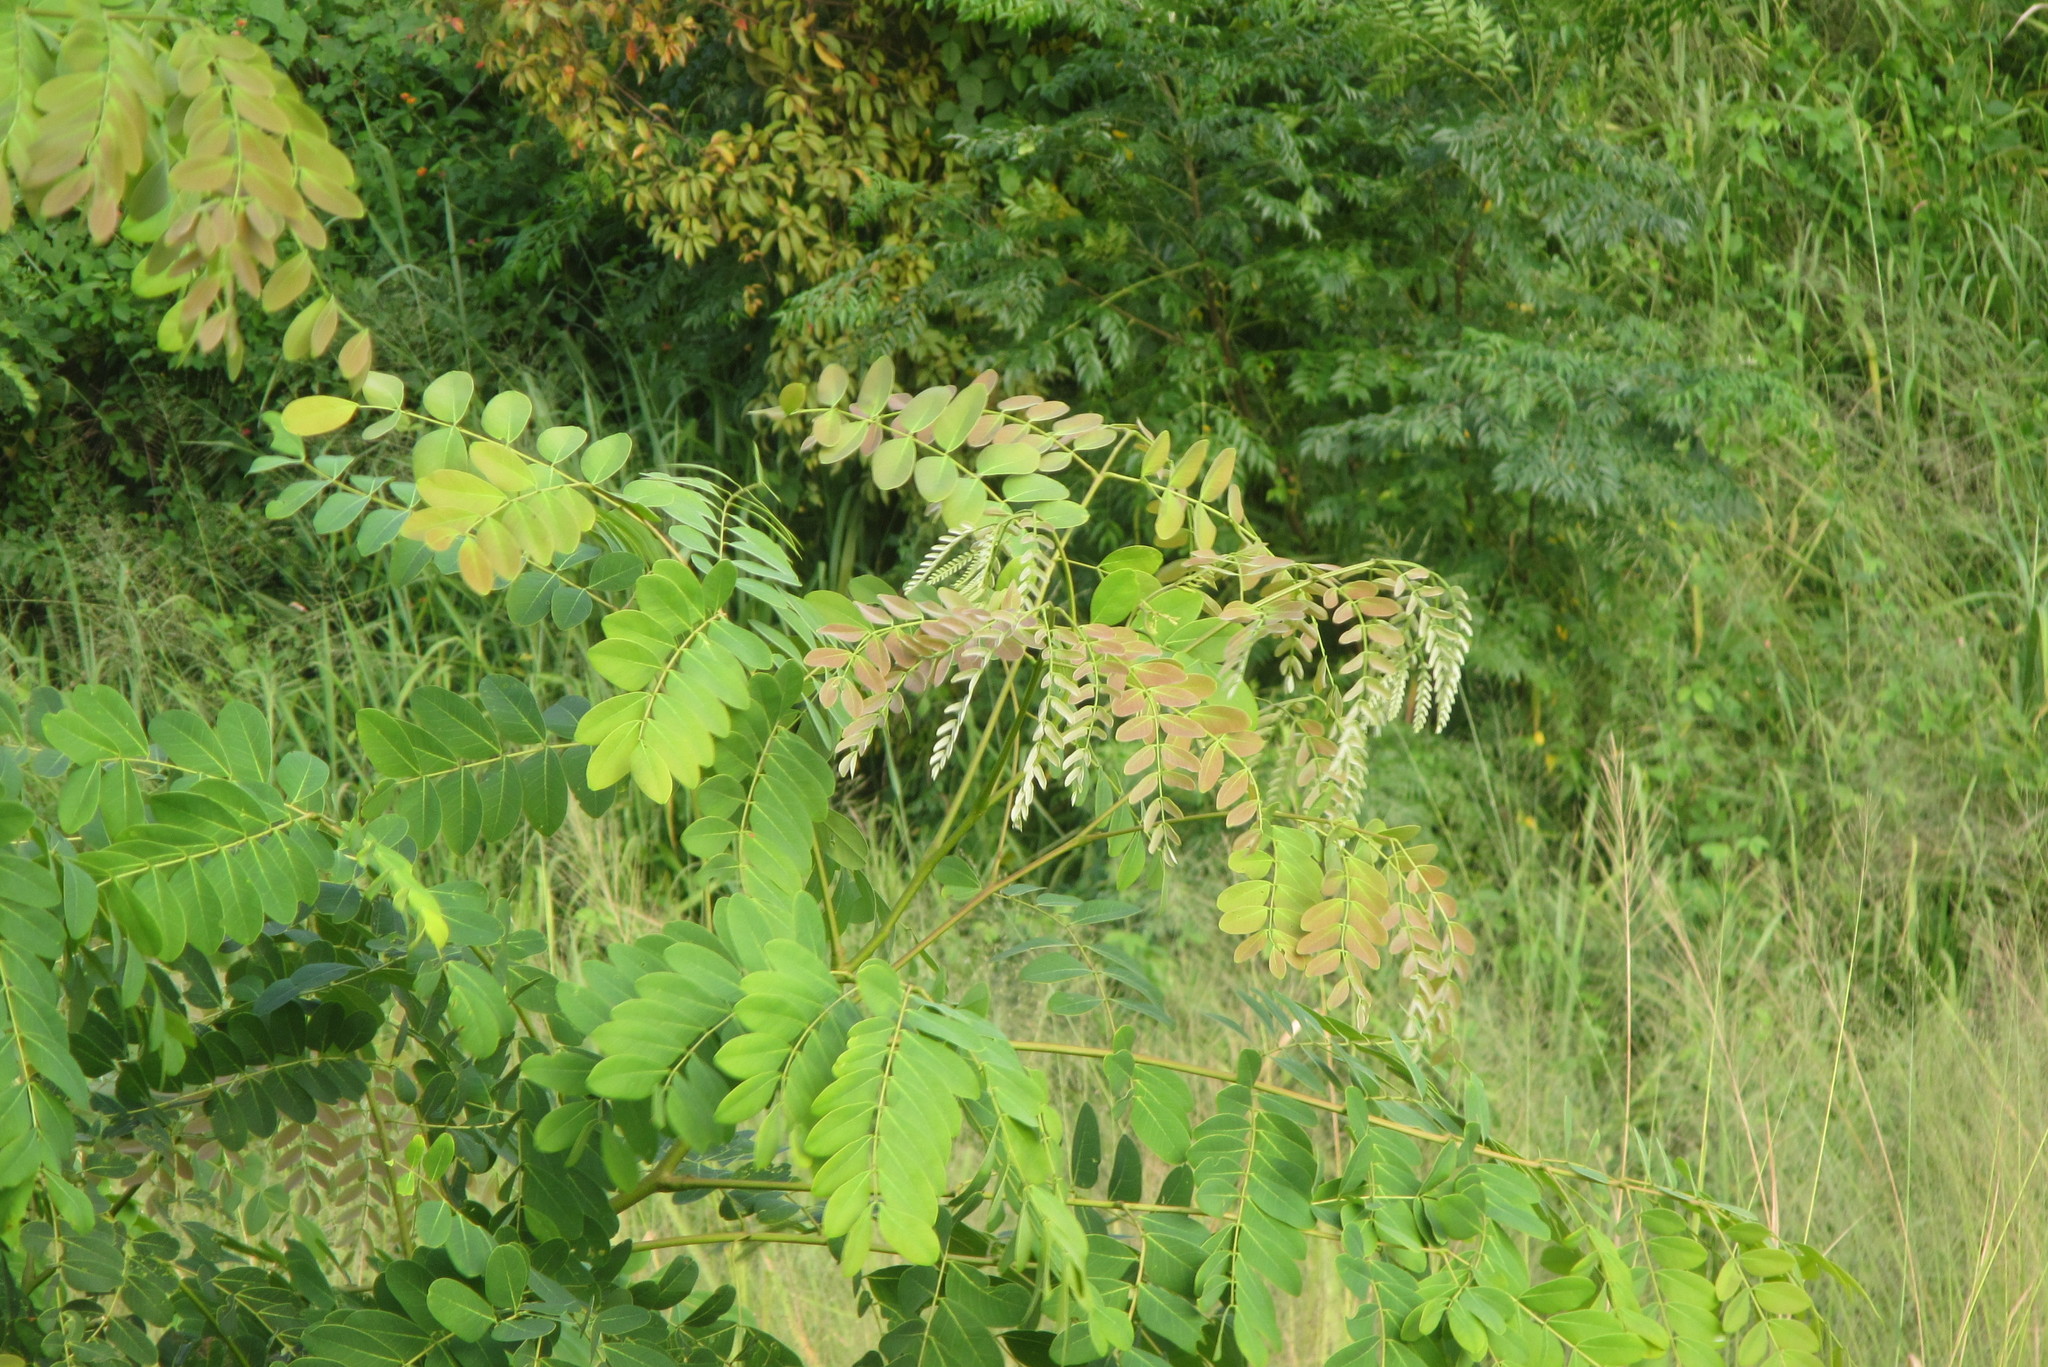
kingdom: Plantae
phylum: Tracheophyta
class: Magnoliopsida
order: Fabales
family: Fabaceae
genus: Albizia
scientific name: Albizia procera
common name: Tall albizia
